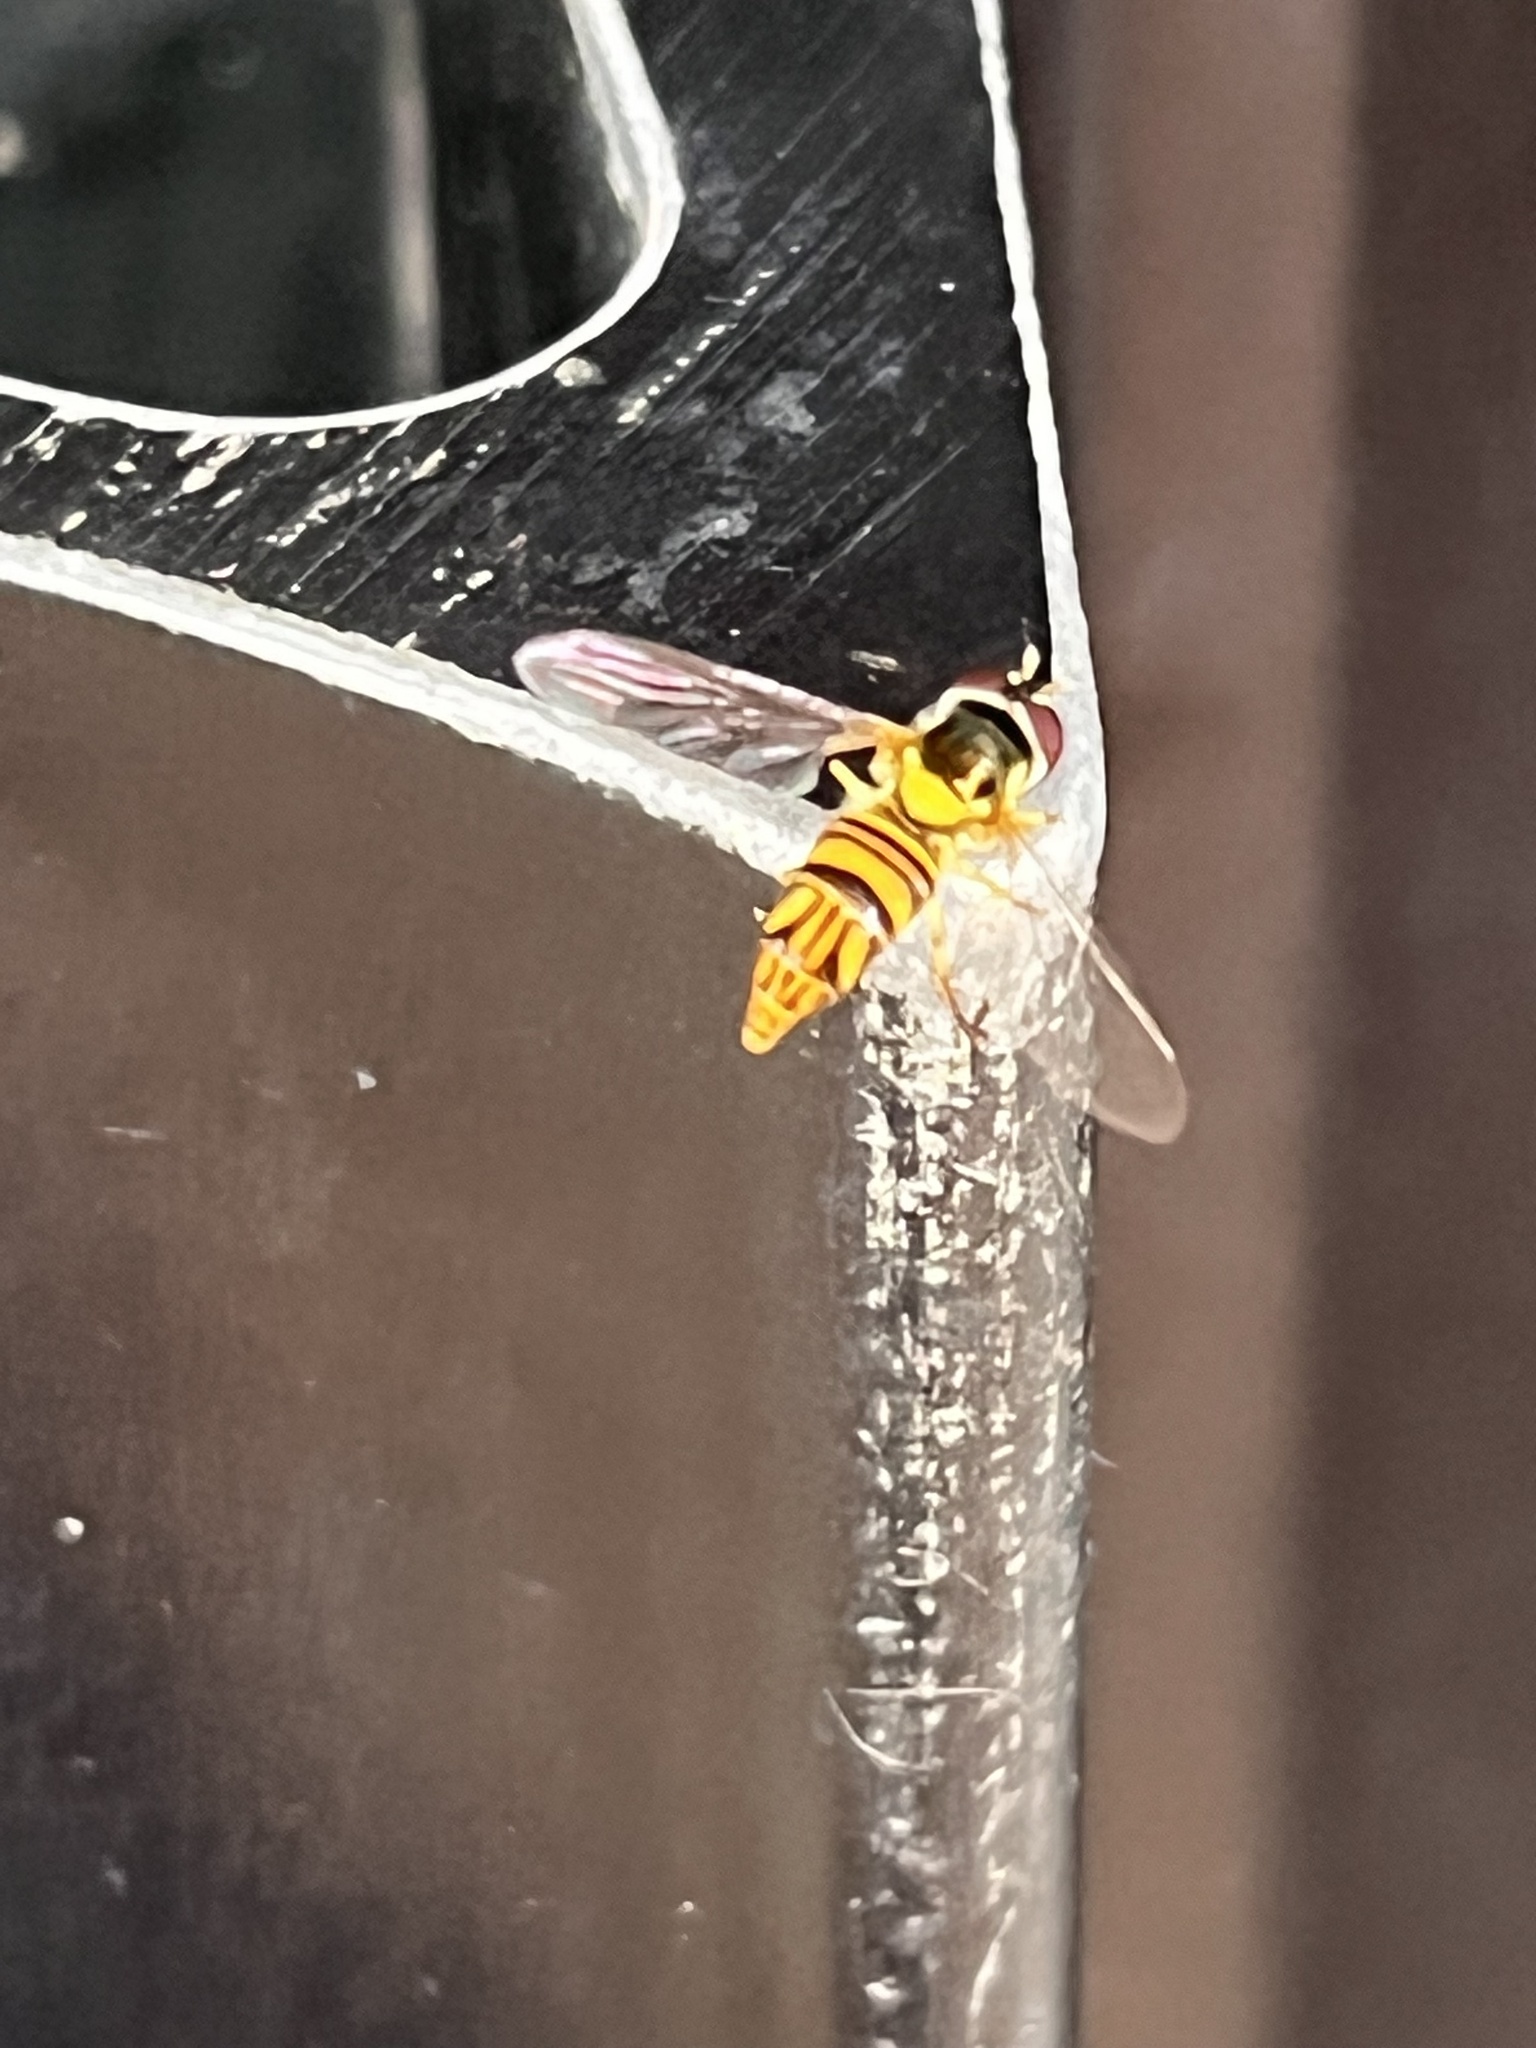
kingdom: Animalia
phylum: Arthropoda
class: Insecta
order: Diptera
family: Syrphidae
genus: Allograpta
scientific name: Allograpta obliqua
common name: Common oblique syrphid
